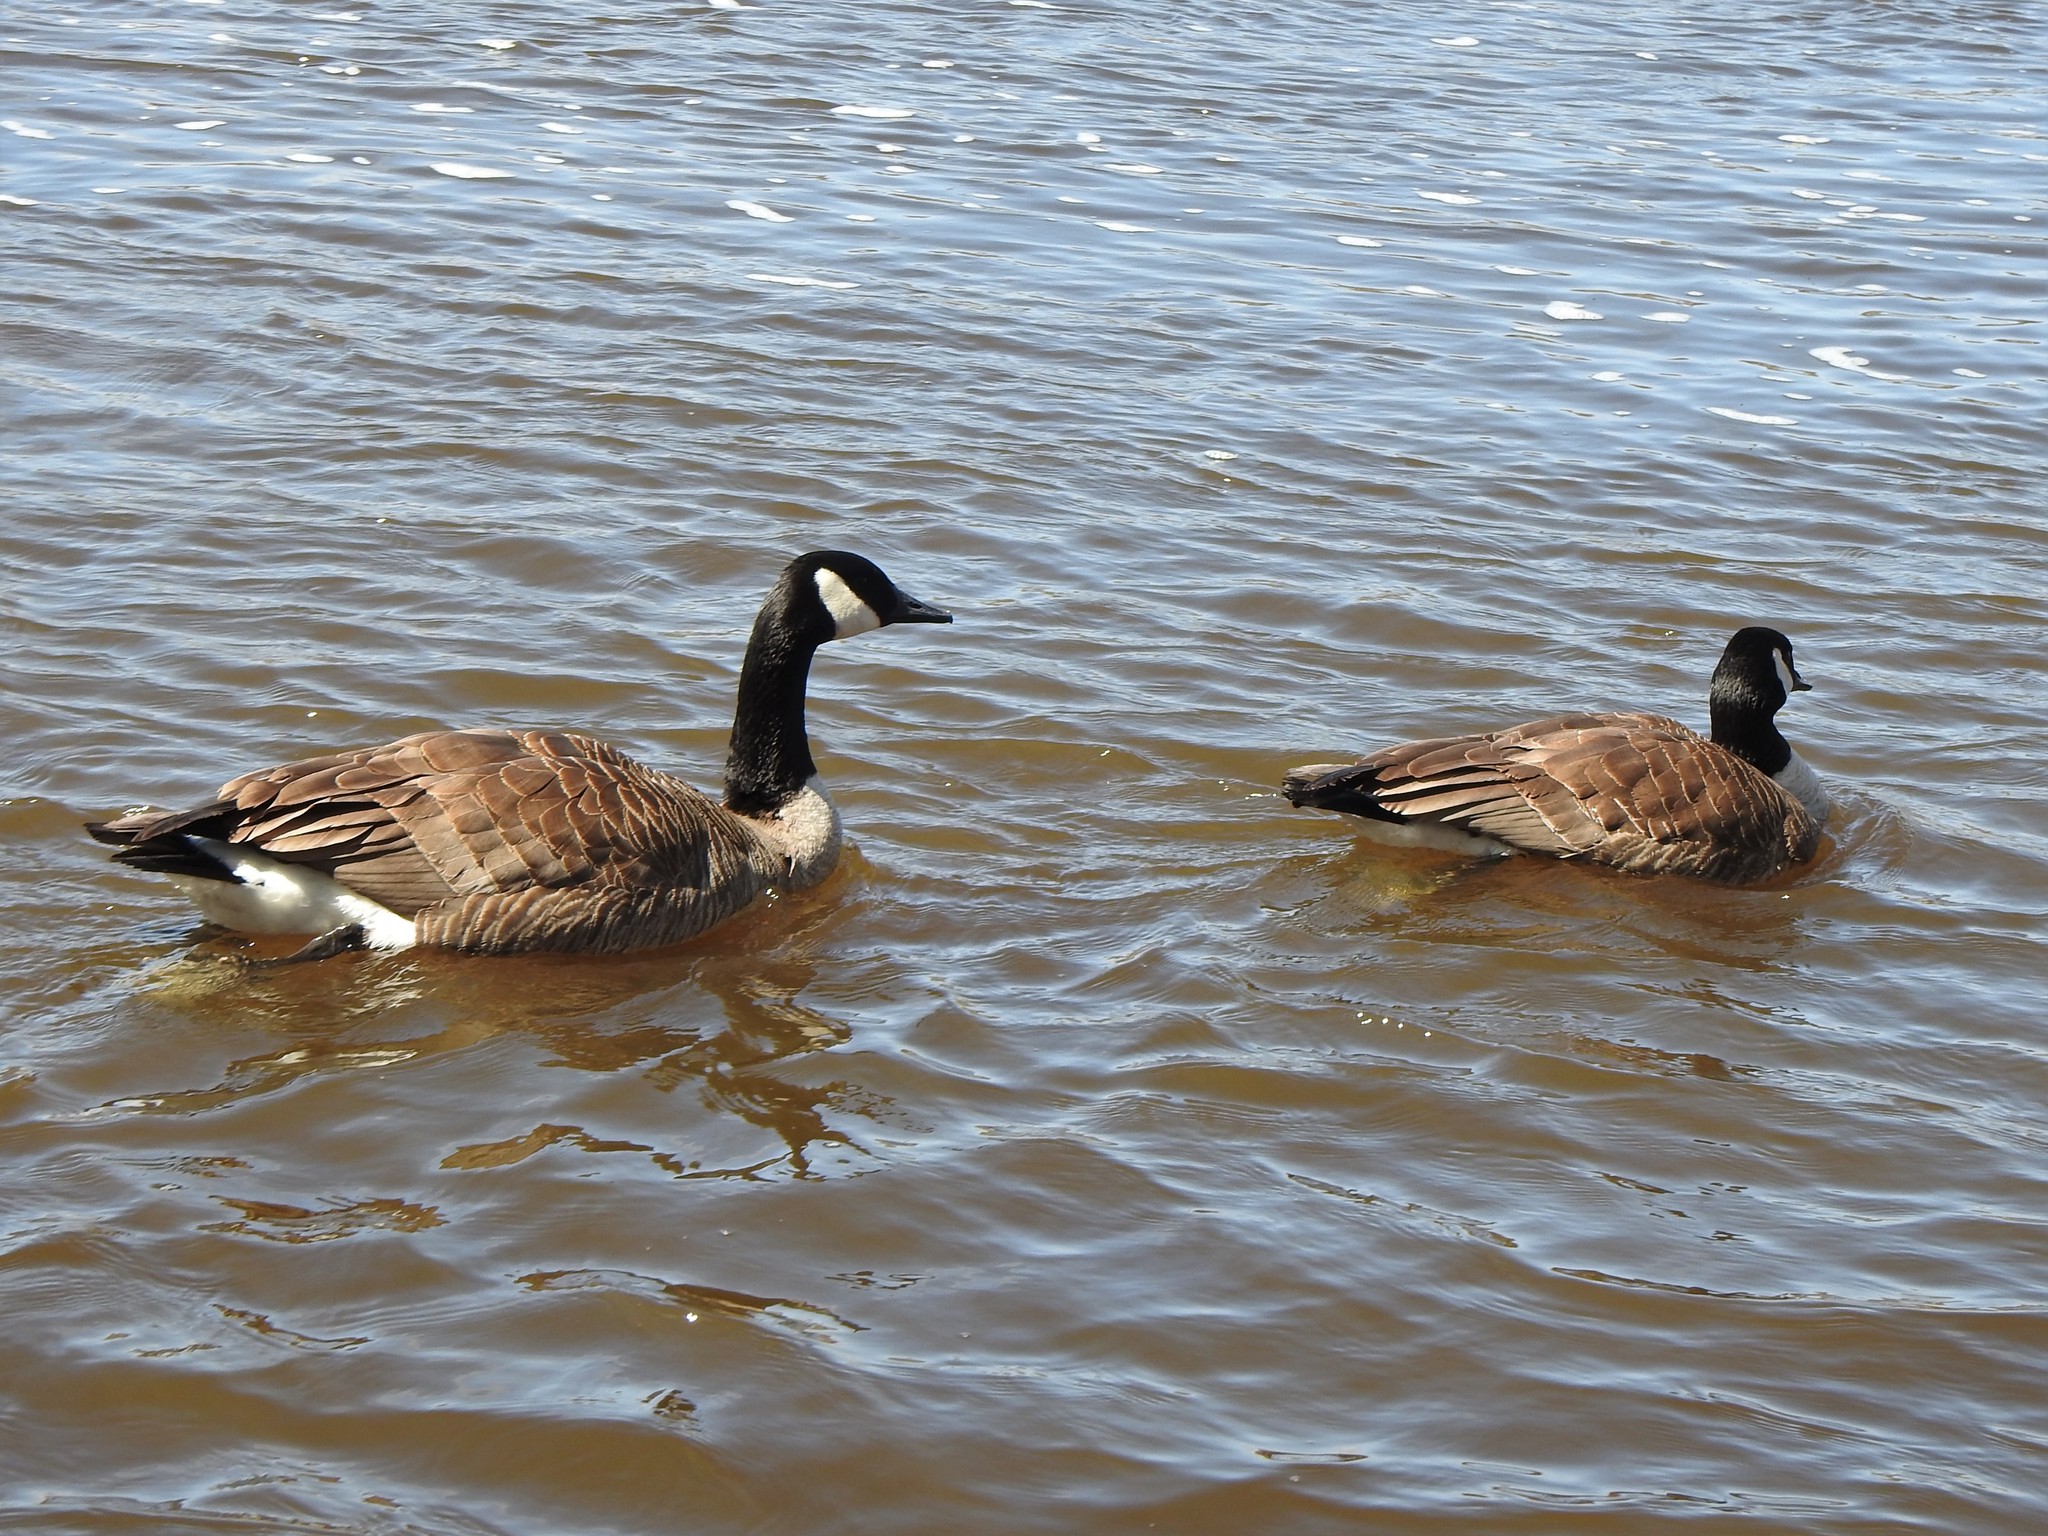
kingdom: Animalia
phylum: Chordata
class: Aves
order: Anseriformes
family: Anatidae
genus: Branta
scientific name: Branta canadensis
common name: Canada goose
